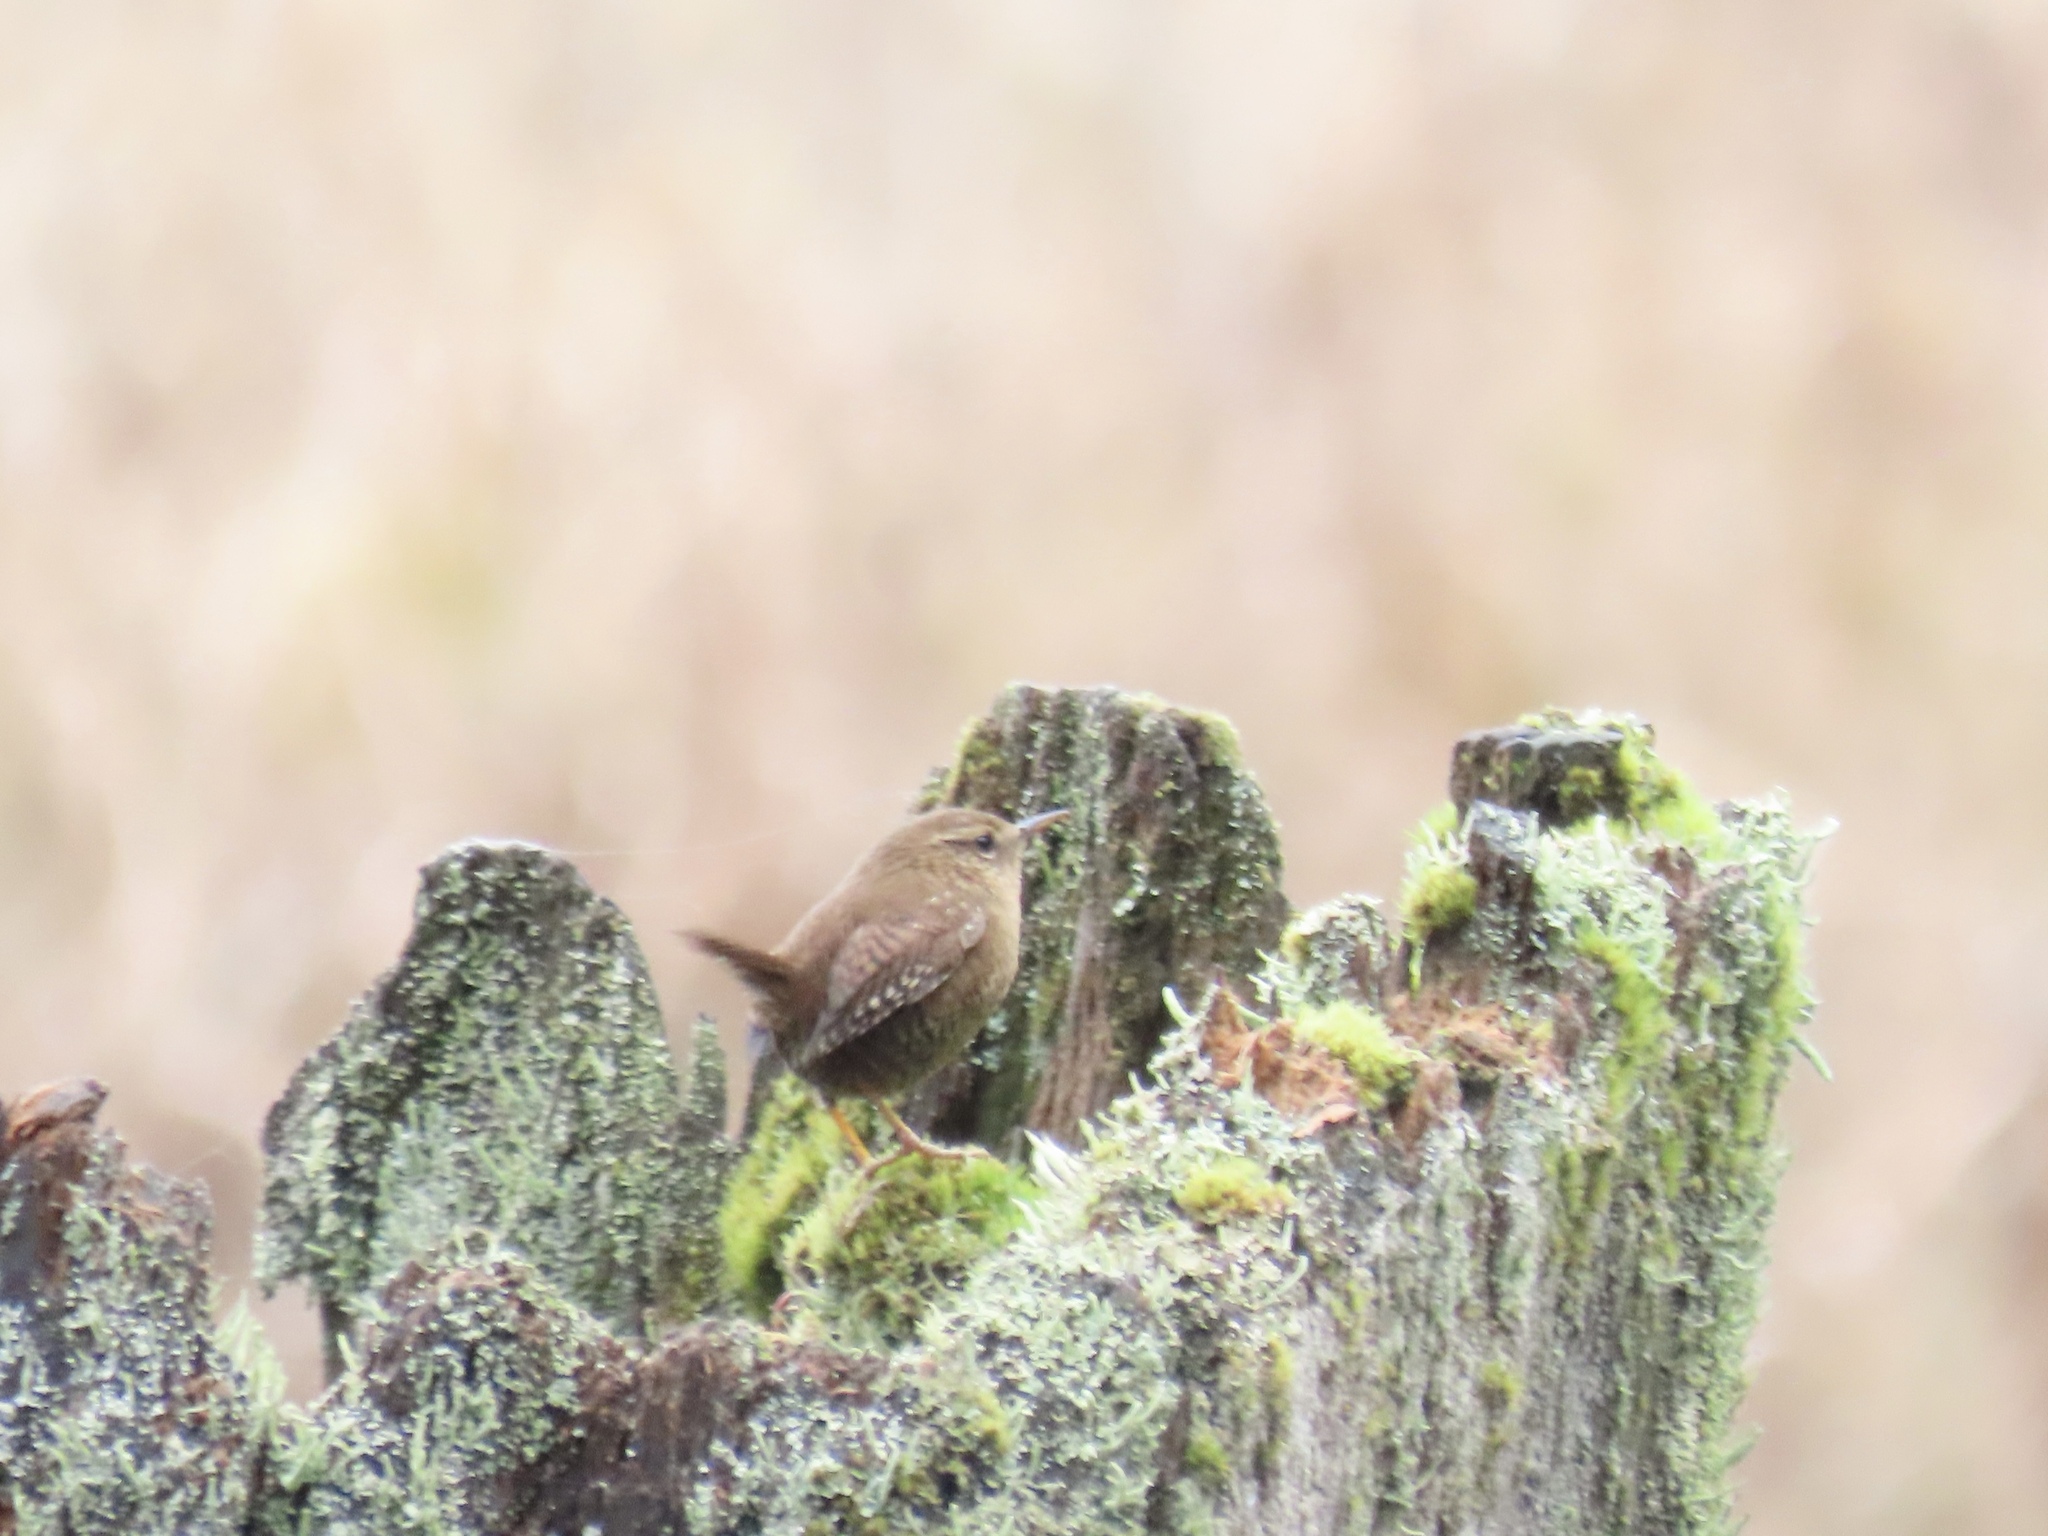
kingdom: Animalia
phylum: Chordata
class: Aves
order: Passeriformes
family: Troglodytidae
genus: Troglodytes
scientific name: Troglodytes pacificus
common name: Pacific wren
